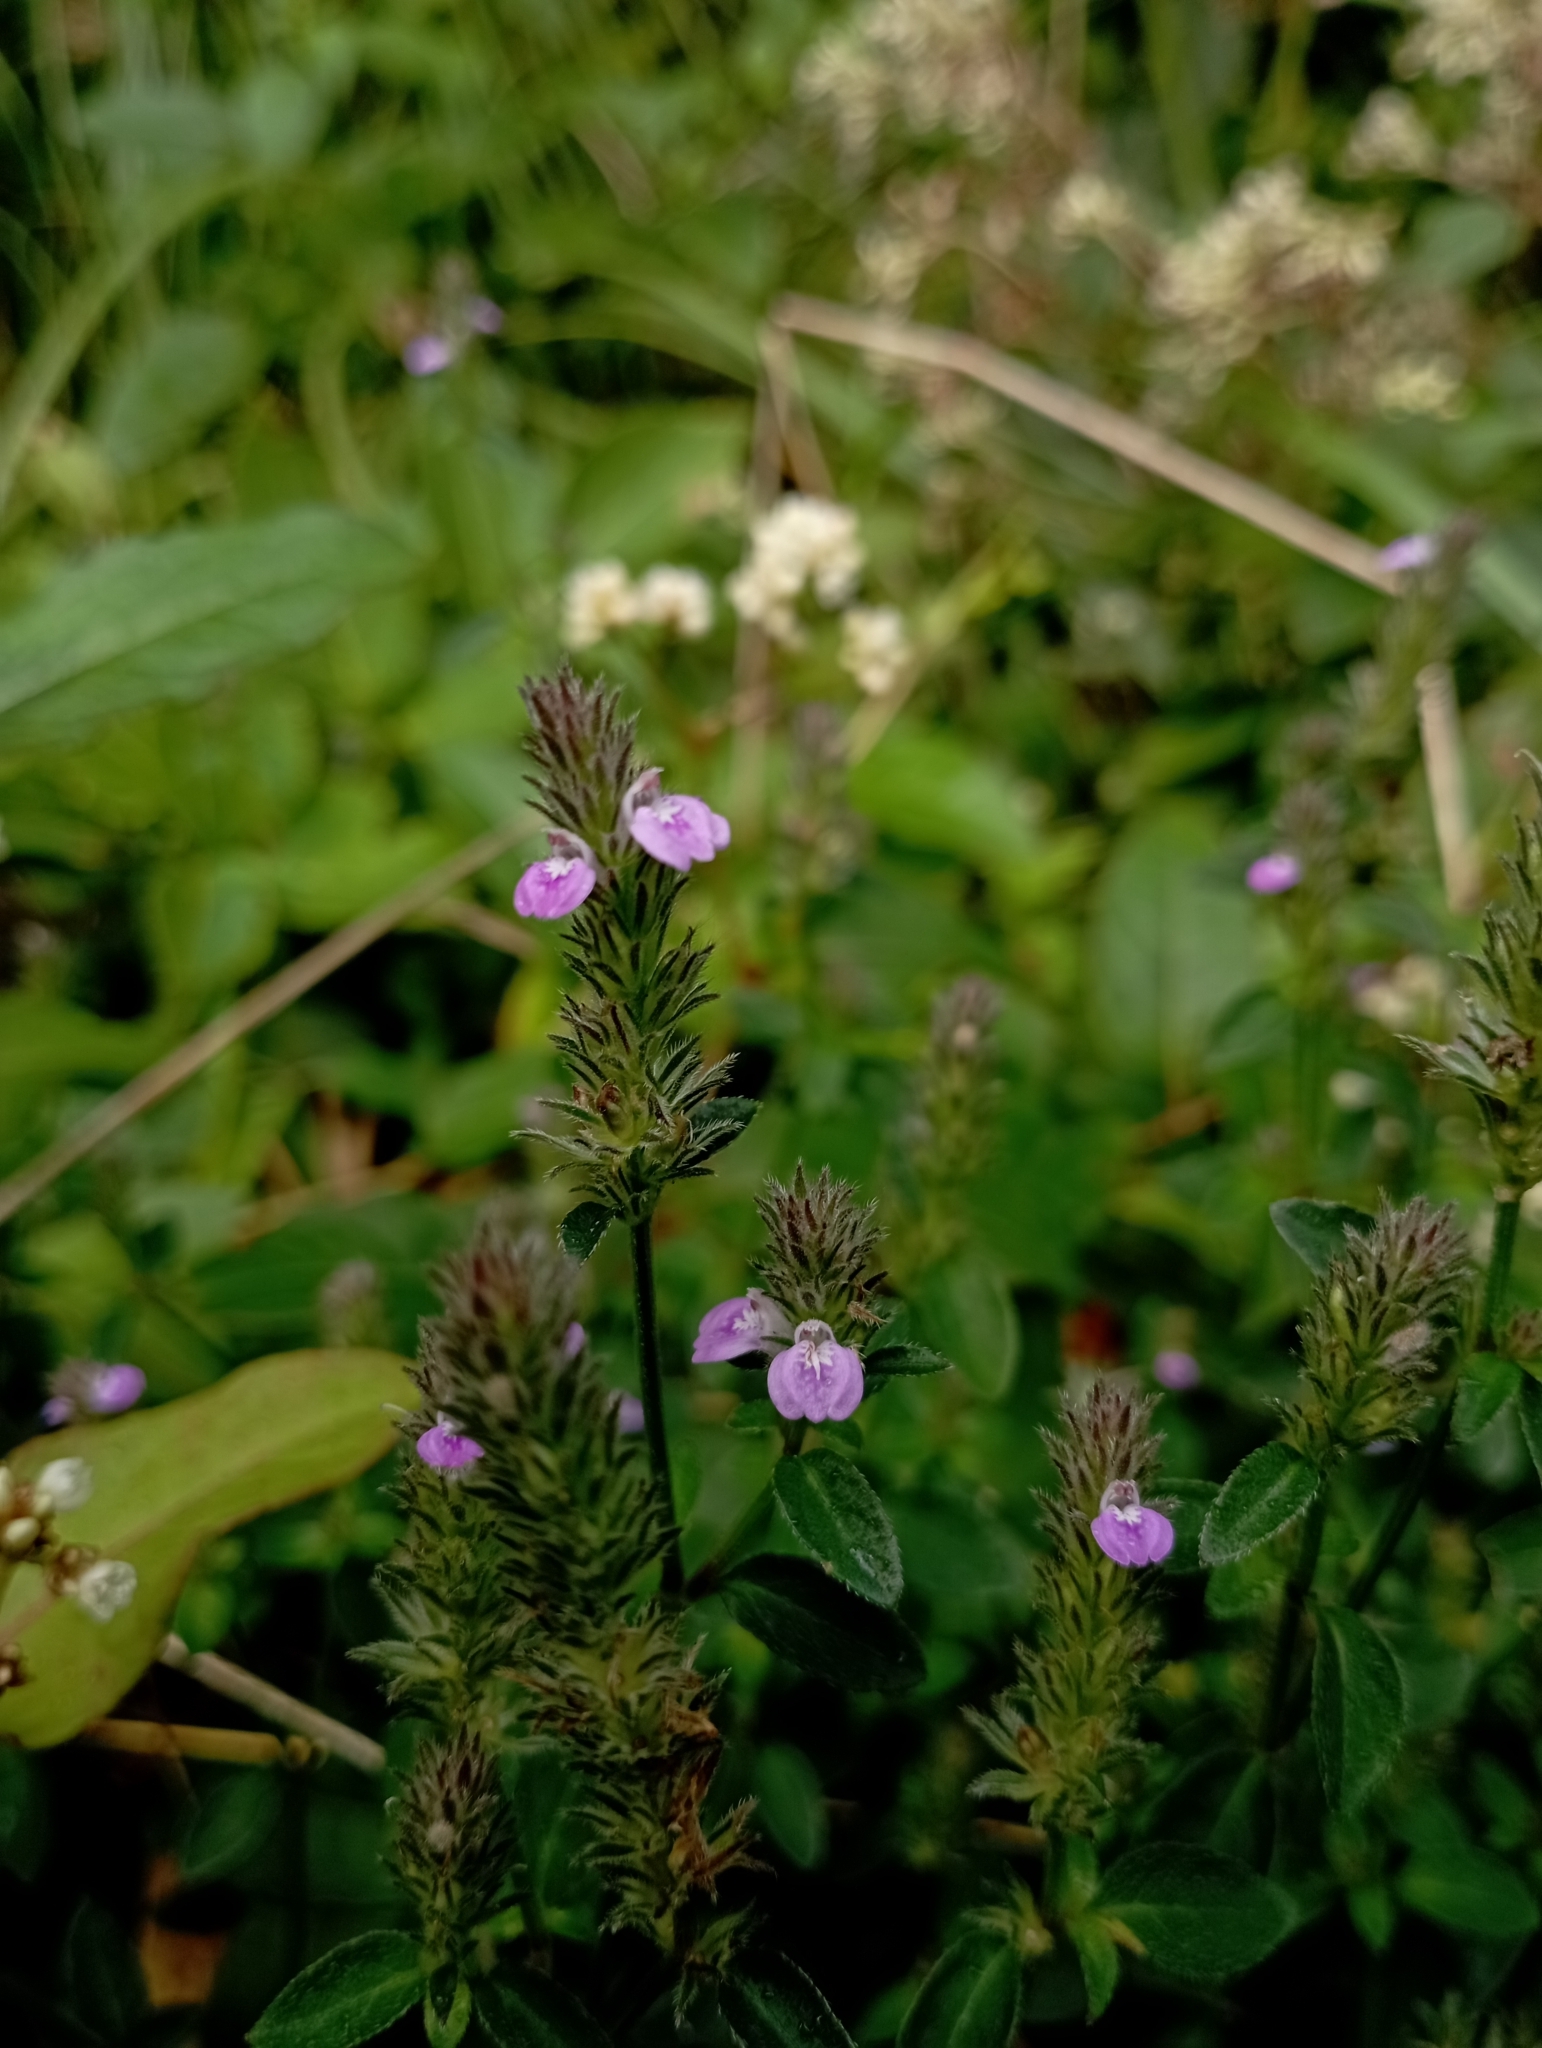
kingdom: Plantae
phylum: Tracheophyta
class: Magnoliopsida
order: Lamiales
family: Acanthaceae
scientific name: Acanthaceae
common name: Acanthaceae
